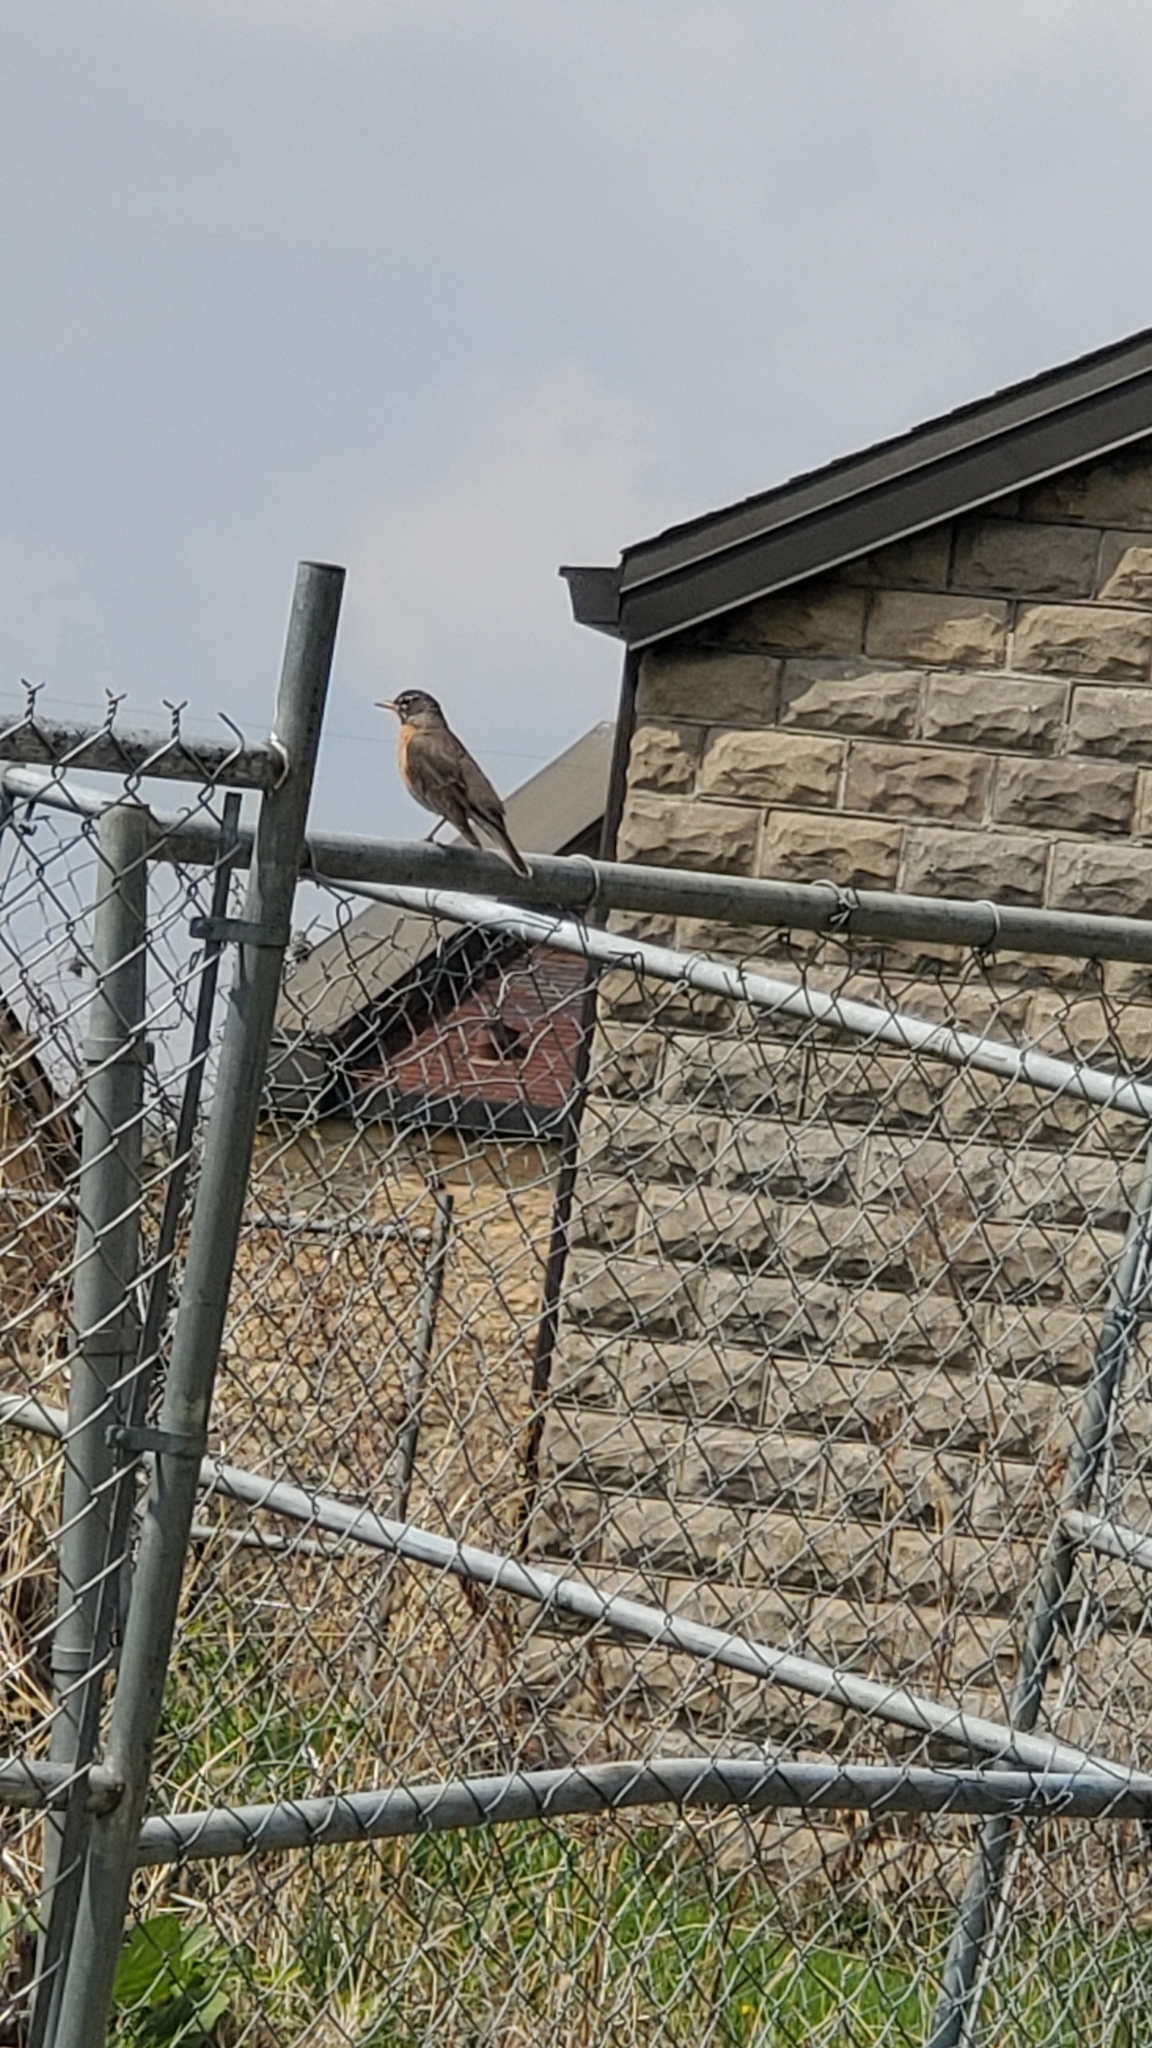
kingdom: Animalia
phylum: Chordata
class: Aves
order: Passeriformes
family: Turdidae
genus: Turdus
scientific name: Turdus migratorius
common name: American robin
